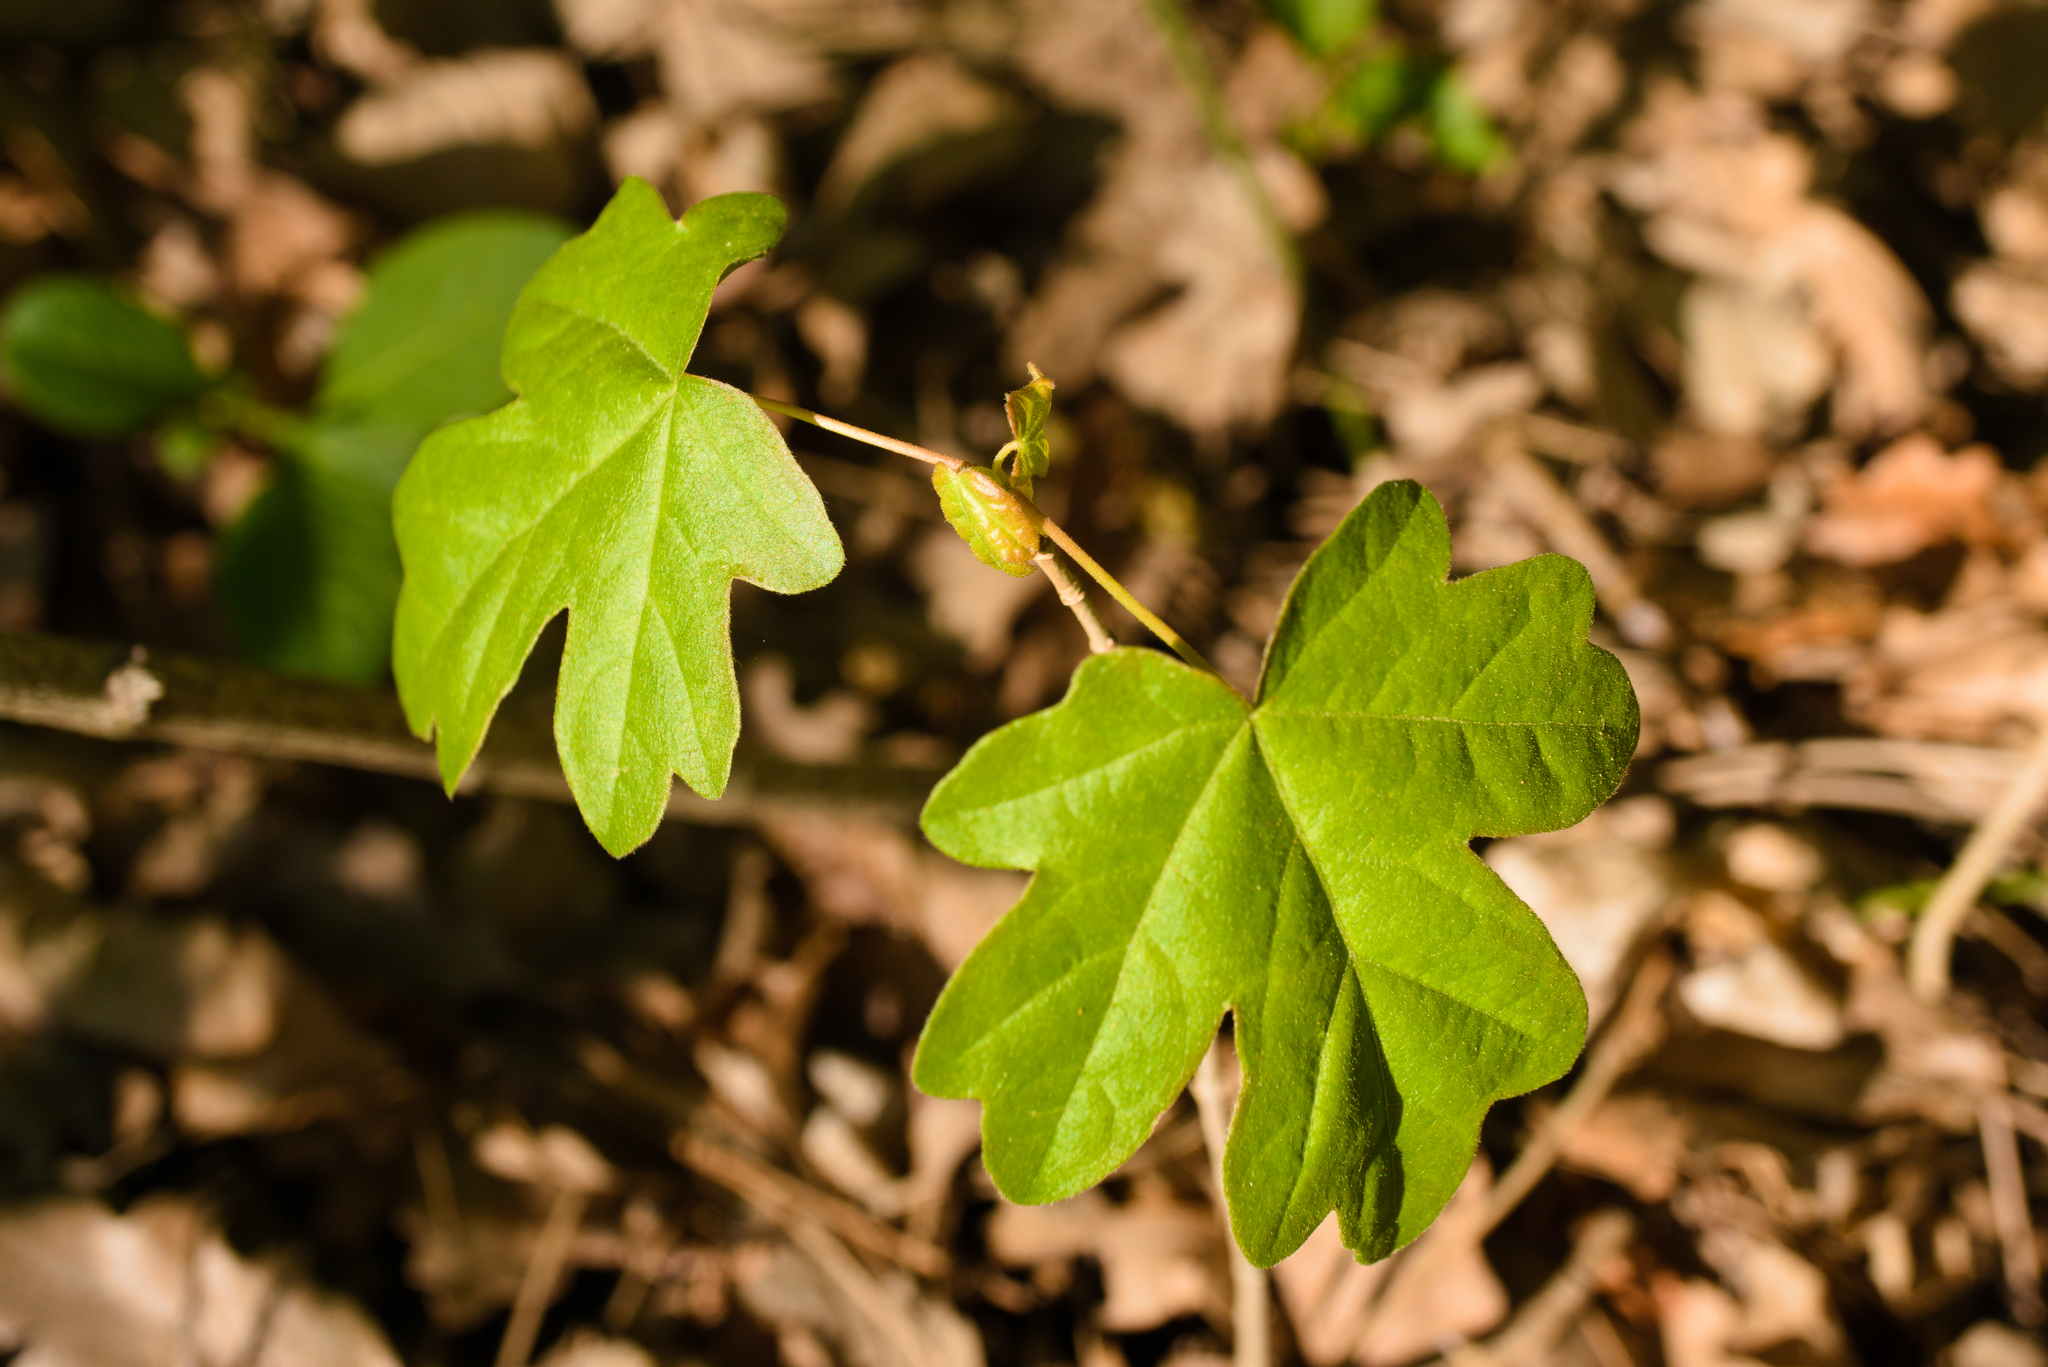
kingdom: Plantae
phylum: Tracheophyta
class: Magnoliopsida
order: Sapindales
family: Sapindaceae
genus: Acer
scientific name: Acer campestre
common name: Field maple
